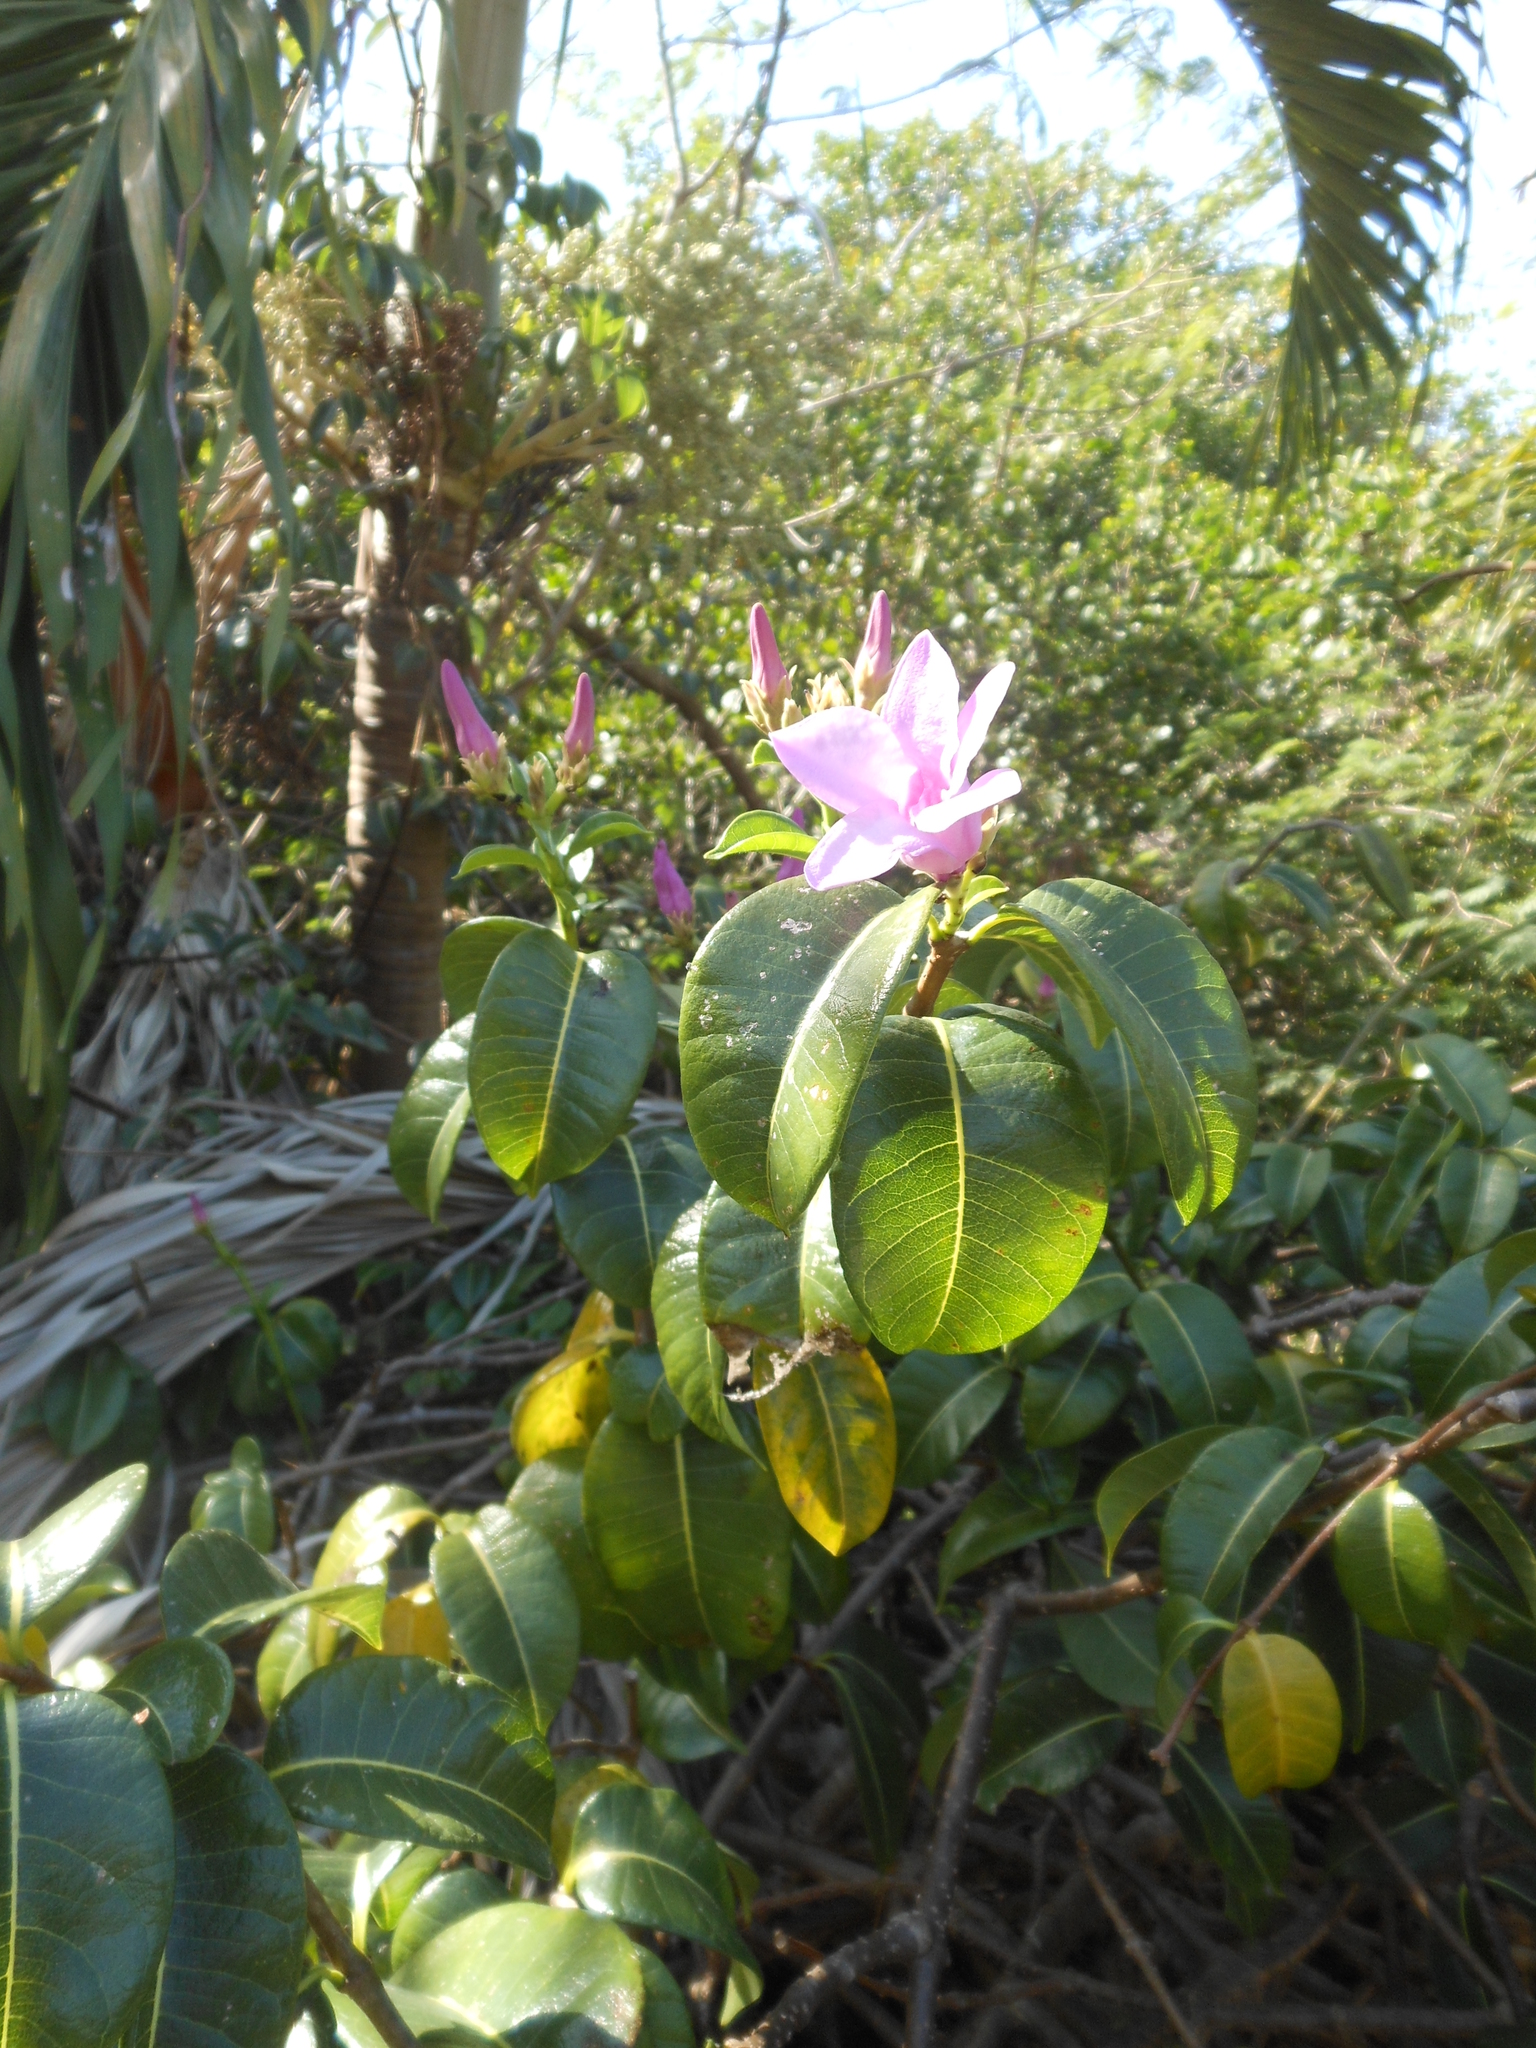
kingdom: Plantae
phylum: Tracheophyta
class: Magnoliopsida
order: Gentianales
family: Apocynaceae
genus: Cryptostegia
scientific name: Cryptostegia grandiflora
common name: Palay rubbervine
